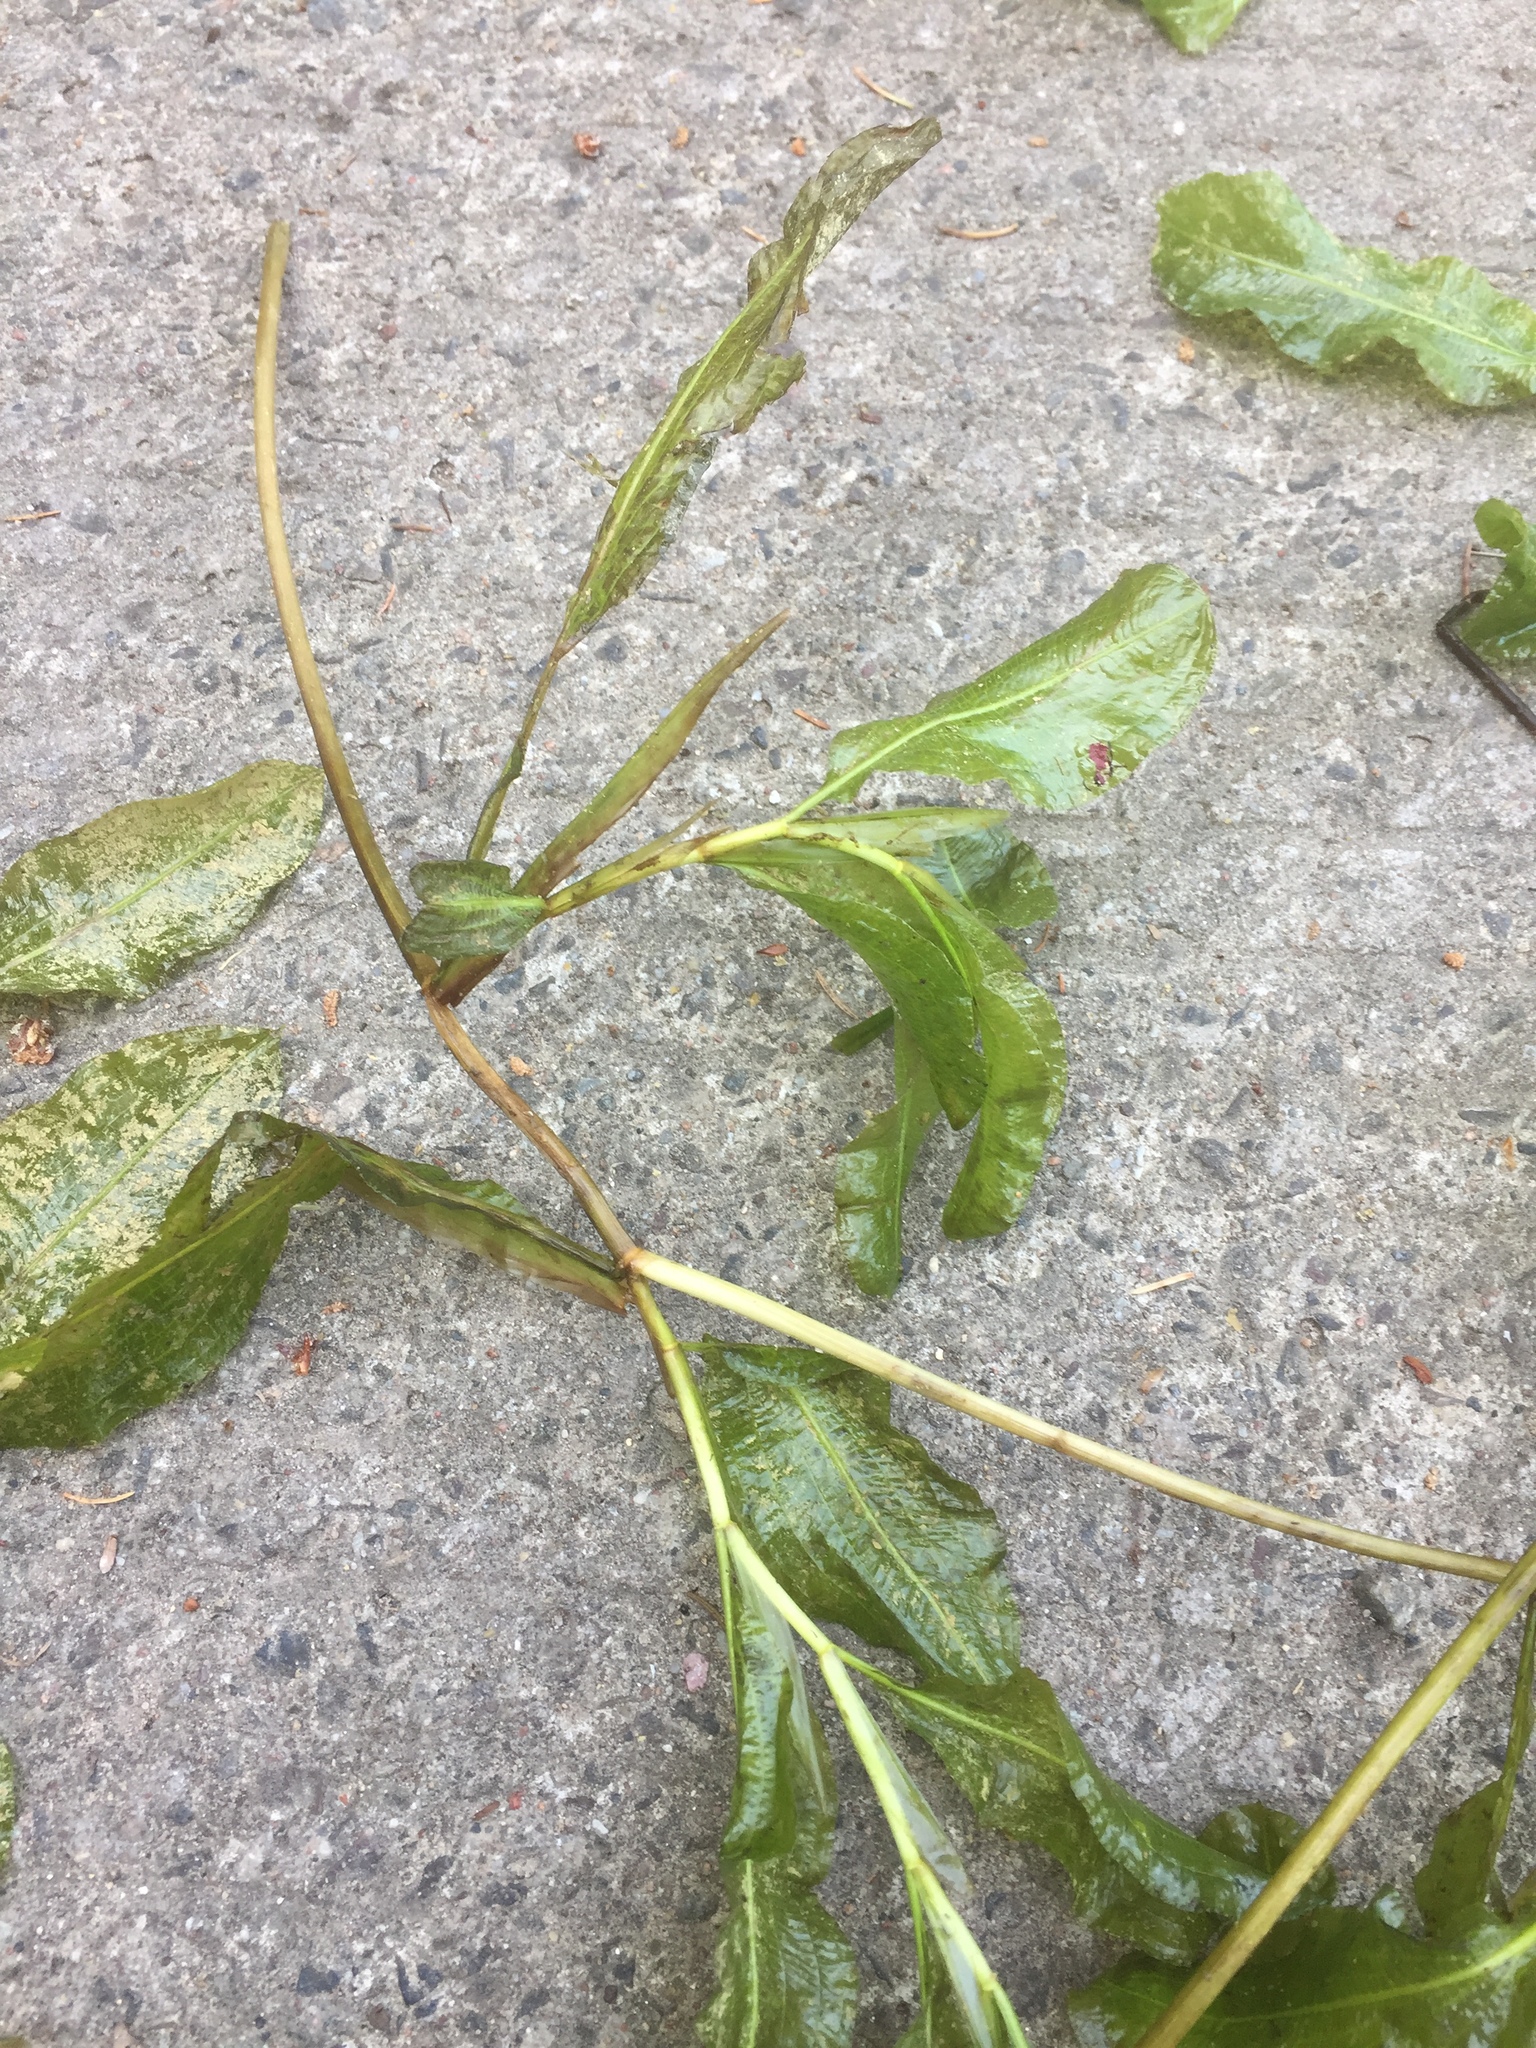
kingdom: Plantae
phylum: Tracheophyta
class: Liliopsida
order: Alismatales
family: Potamogetonaceae
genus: Potamogeton
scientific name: Potamogeton lucens
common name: Shining pondweed
